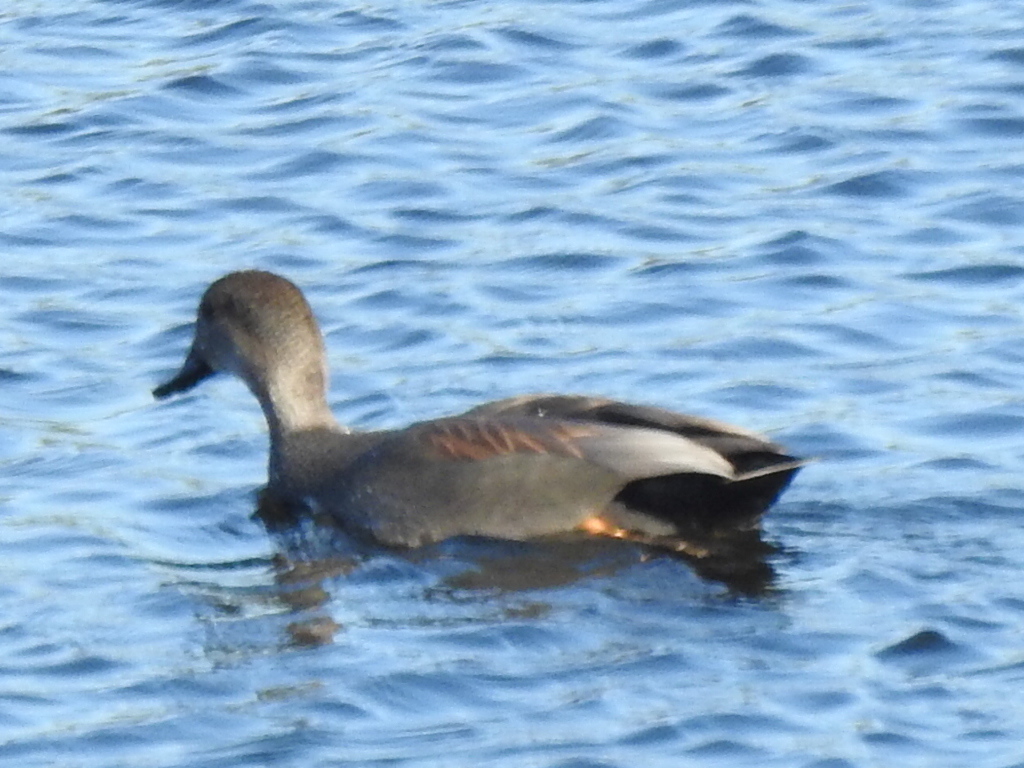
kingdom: Animalia
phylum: Chordata
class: Aves
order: Anseriformes
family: Anatidae
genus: Mareca
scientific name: Mareca strepera
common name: Gadwall
